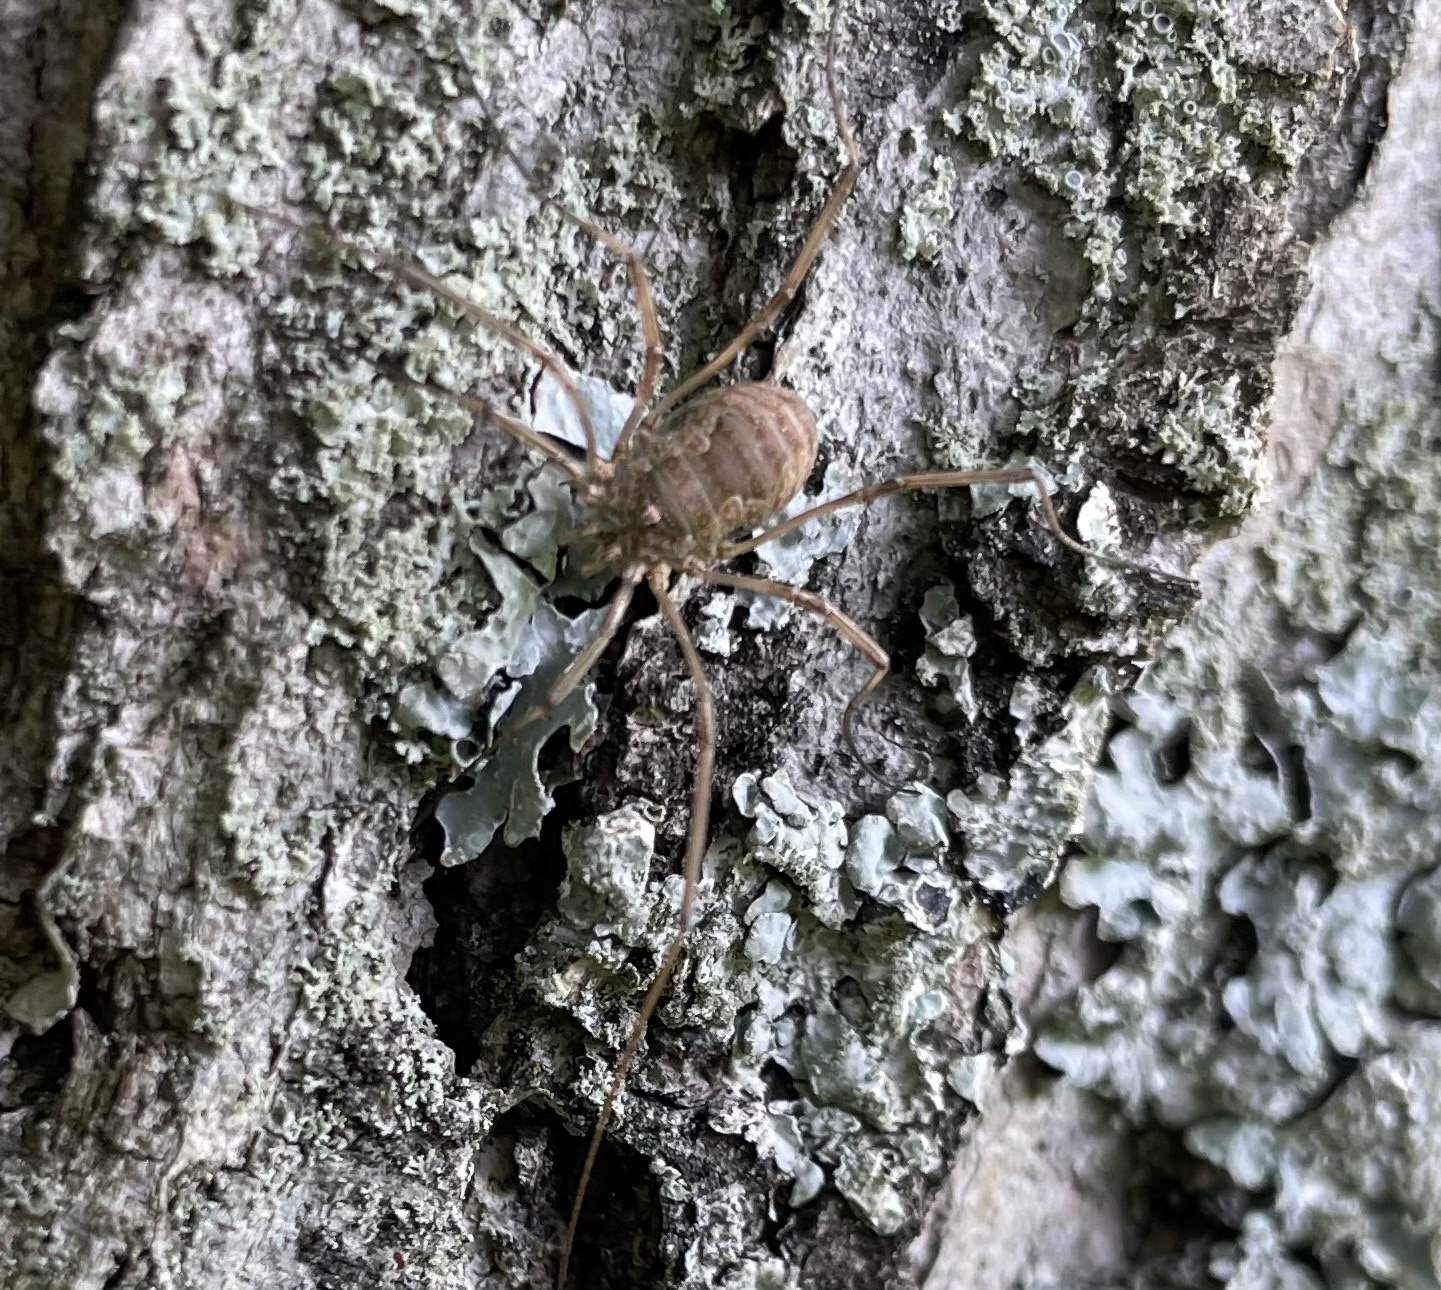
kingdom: Animalia
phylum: Arthropoda
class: Arachnida
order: Opiliones
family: Phalangiidae
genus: Phalangium
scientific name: Phalangium opilio
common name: Daddy longleg
